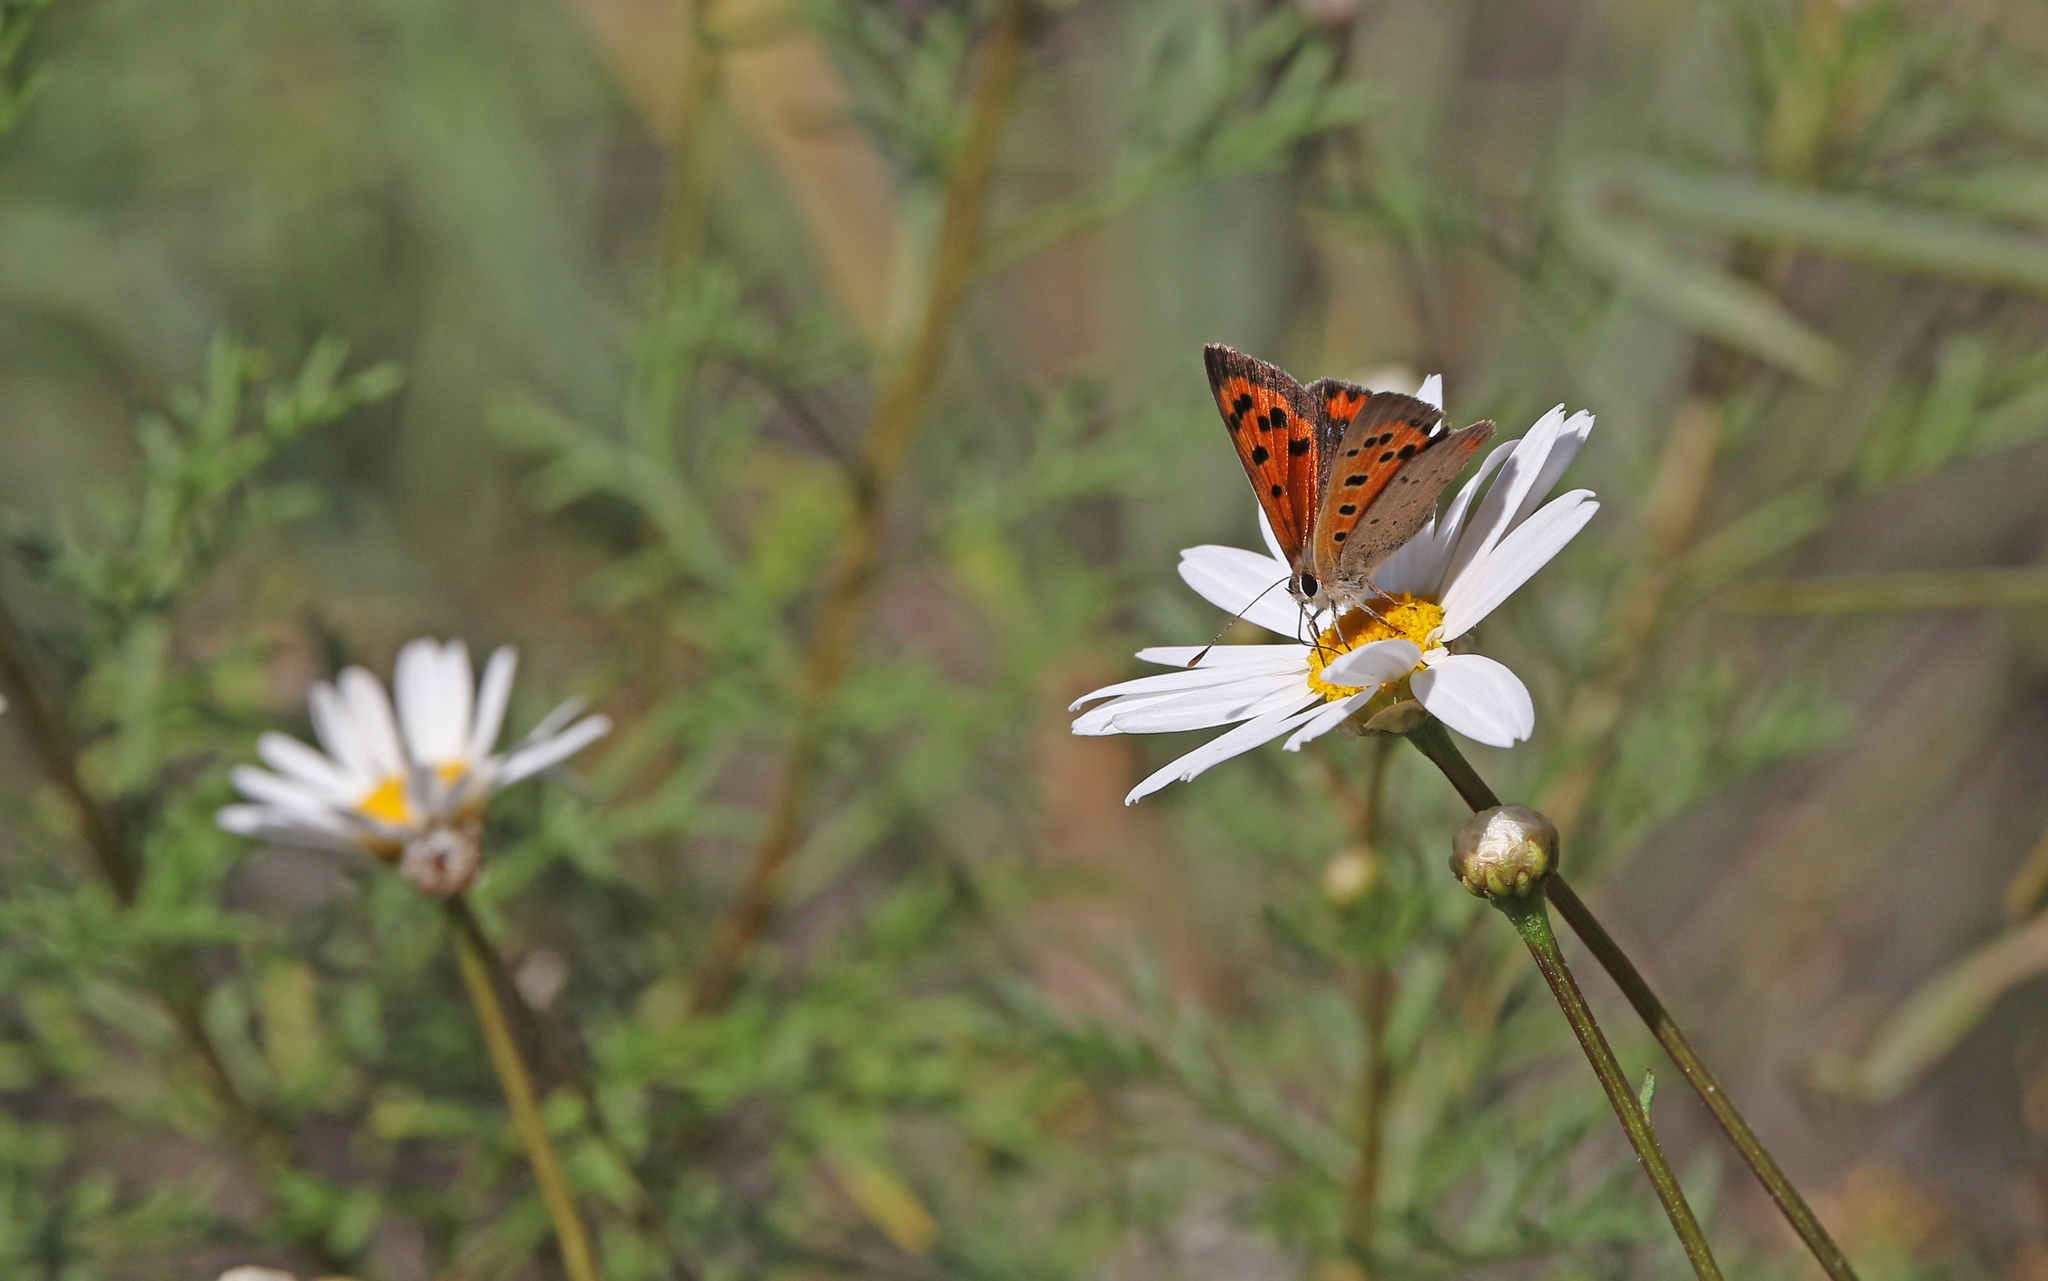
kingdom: Animalia
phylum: Arthropoda
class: Insecta
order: Lepidoptera
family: Lycaenidae
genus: Lycaena
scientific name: Lycaena phlaeas
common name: Small copper
